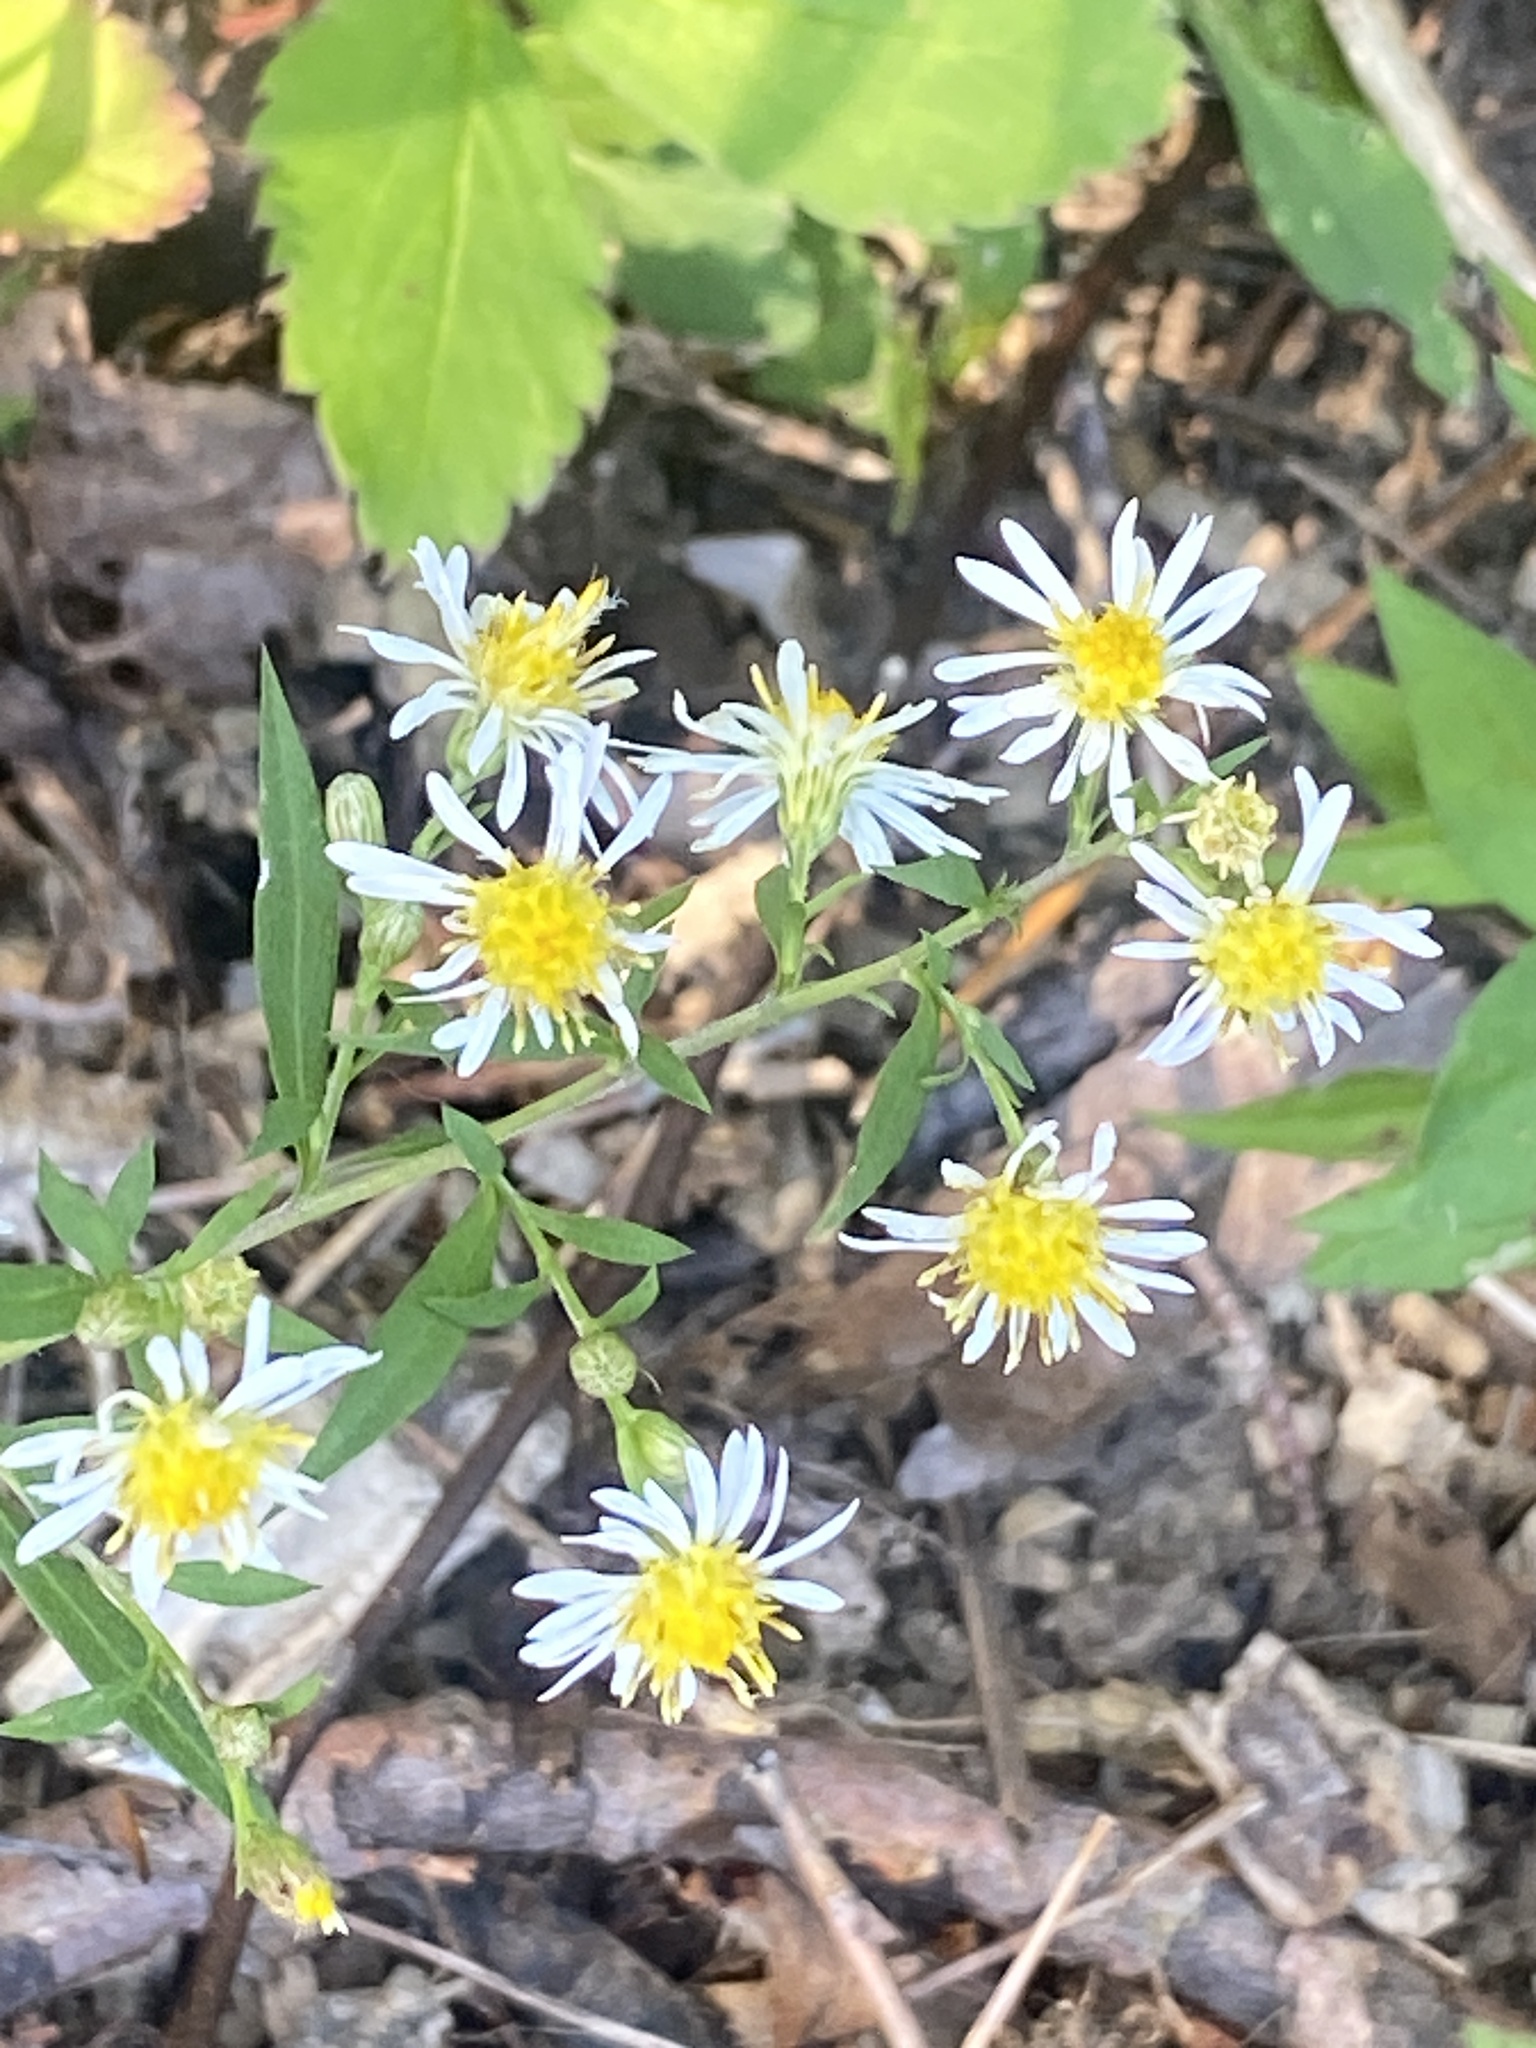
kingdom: Plantae
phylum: Tracheophyta
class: Magnoliopsida
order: Asterales
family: Asteraceae
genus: Symphyotrichum
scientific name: Symphyotrichum lanceolatum
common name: Panicled aster
